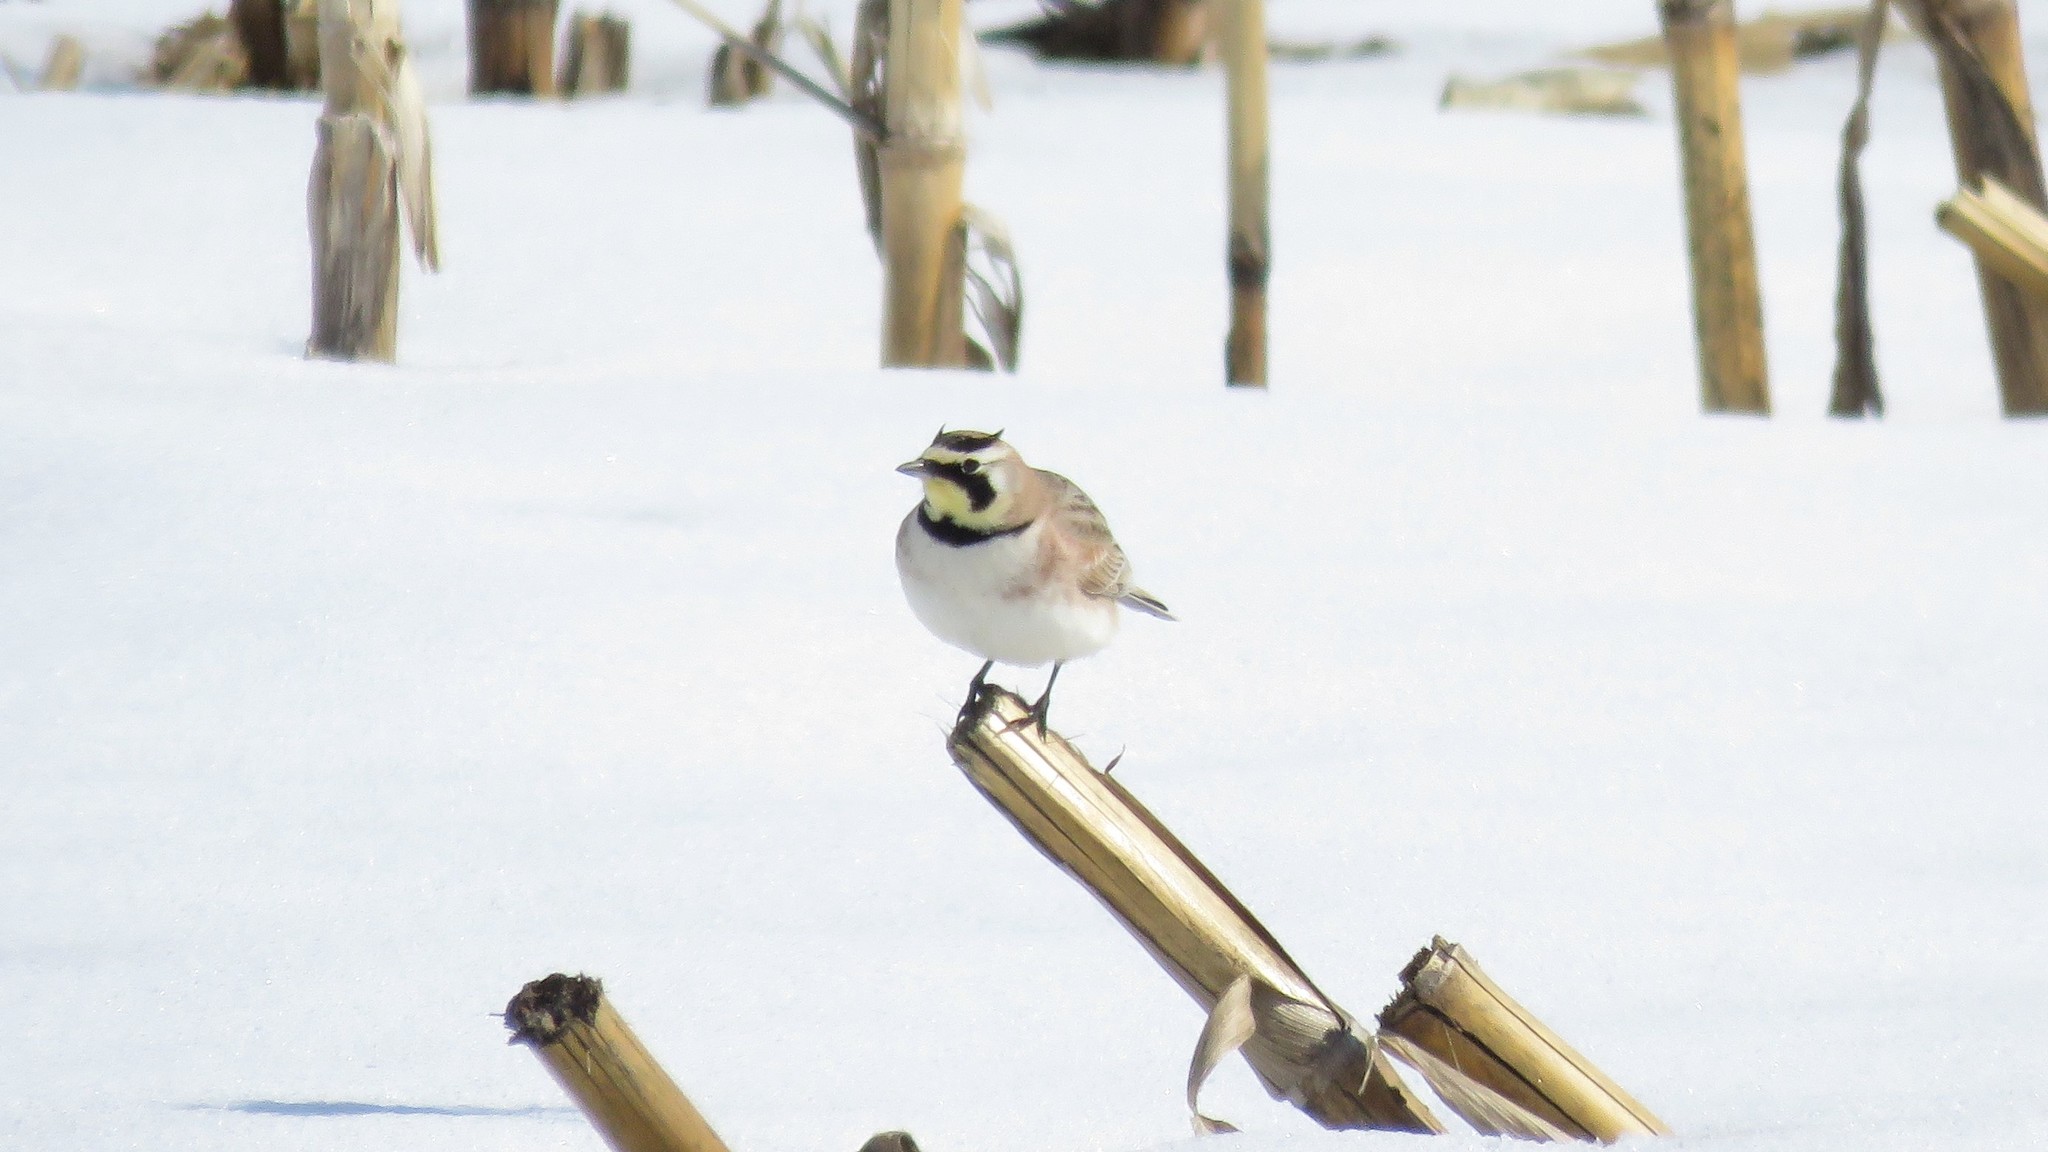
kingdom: Animalia
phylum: Chordata
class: Aves
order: Passeriformes
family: Alaudidae
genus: Eremophila
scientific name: Eremophila alpestris
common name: Horned lark
